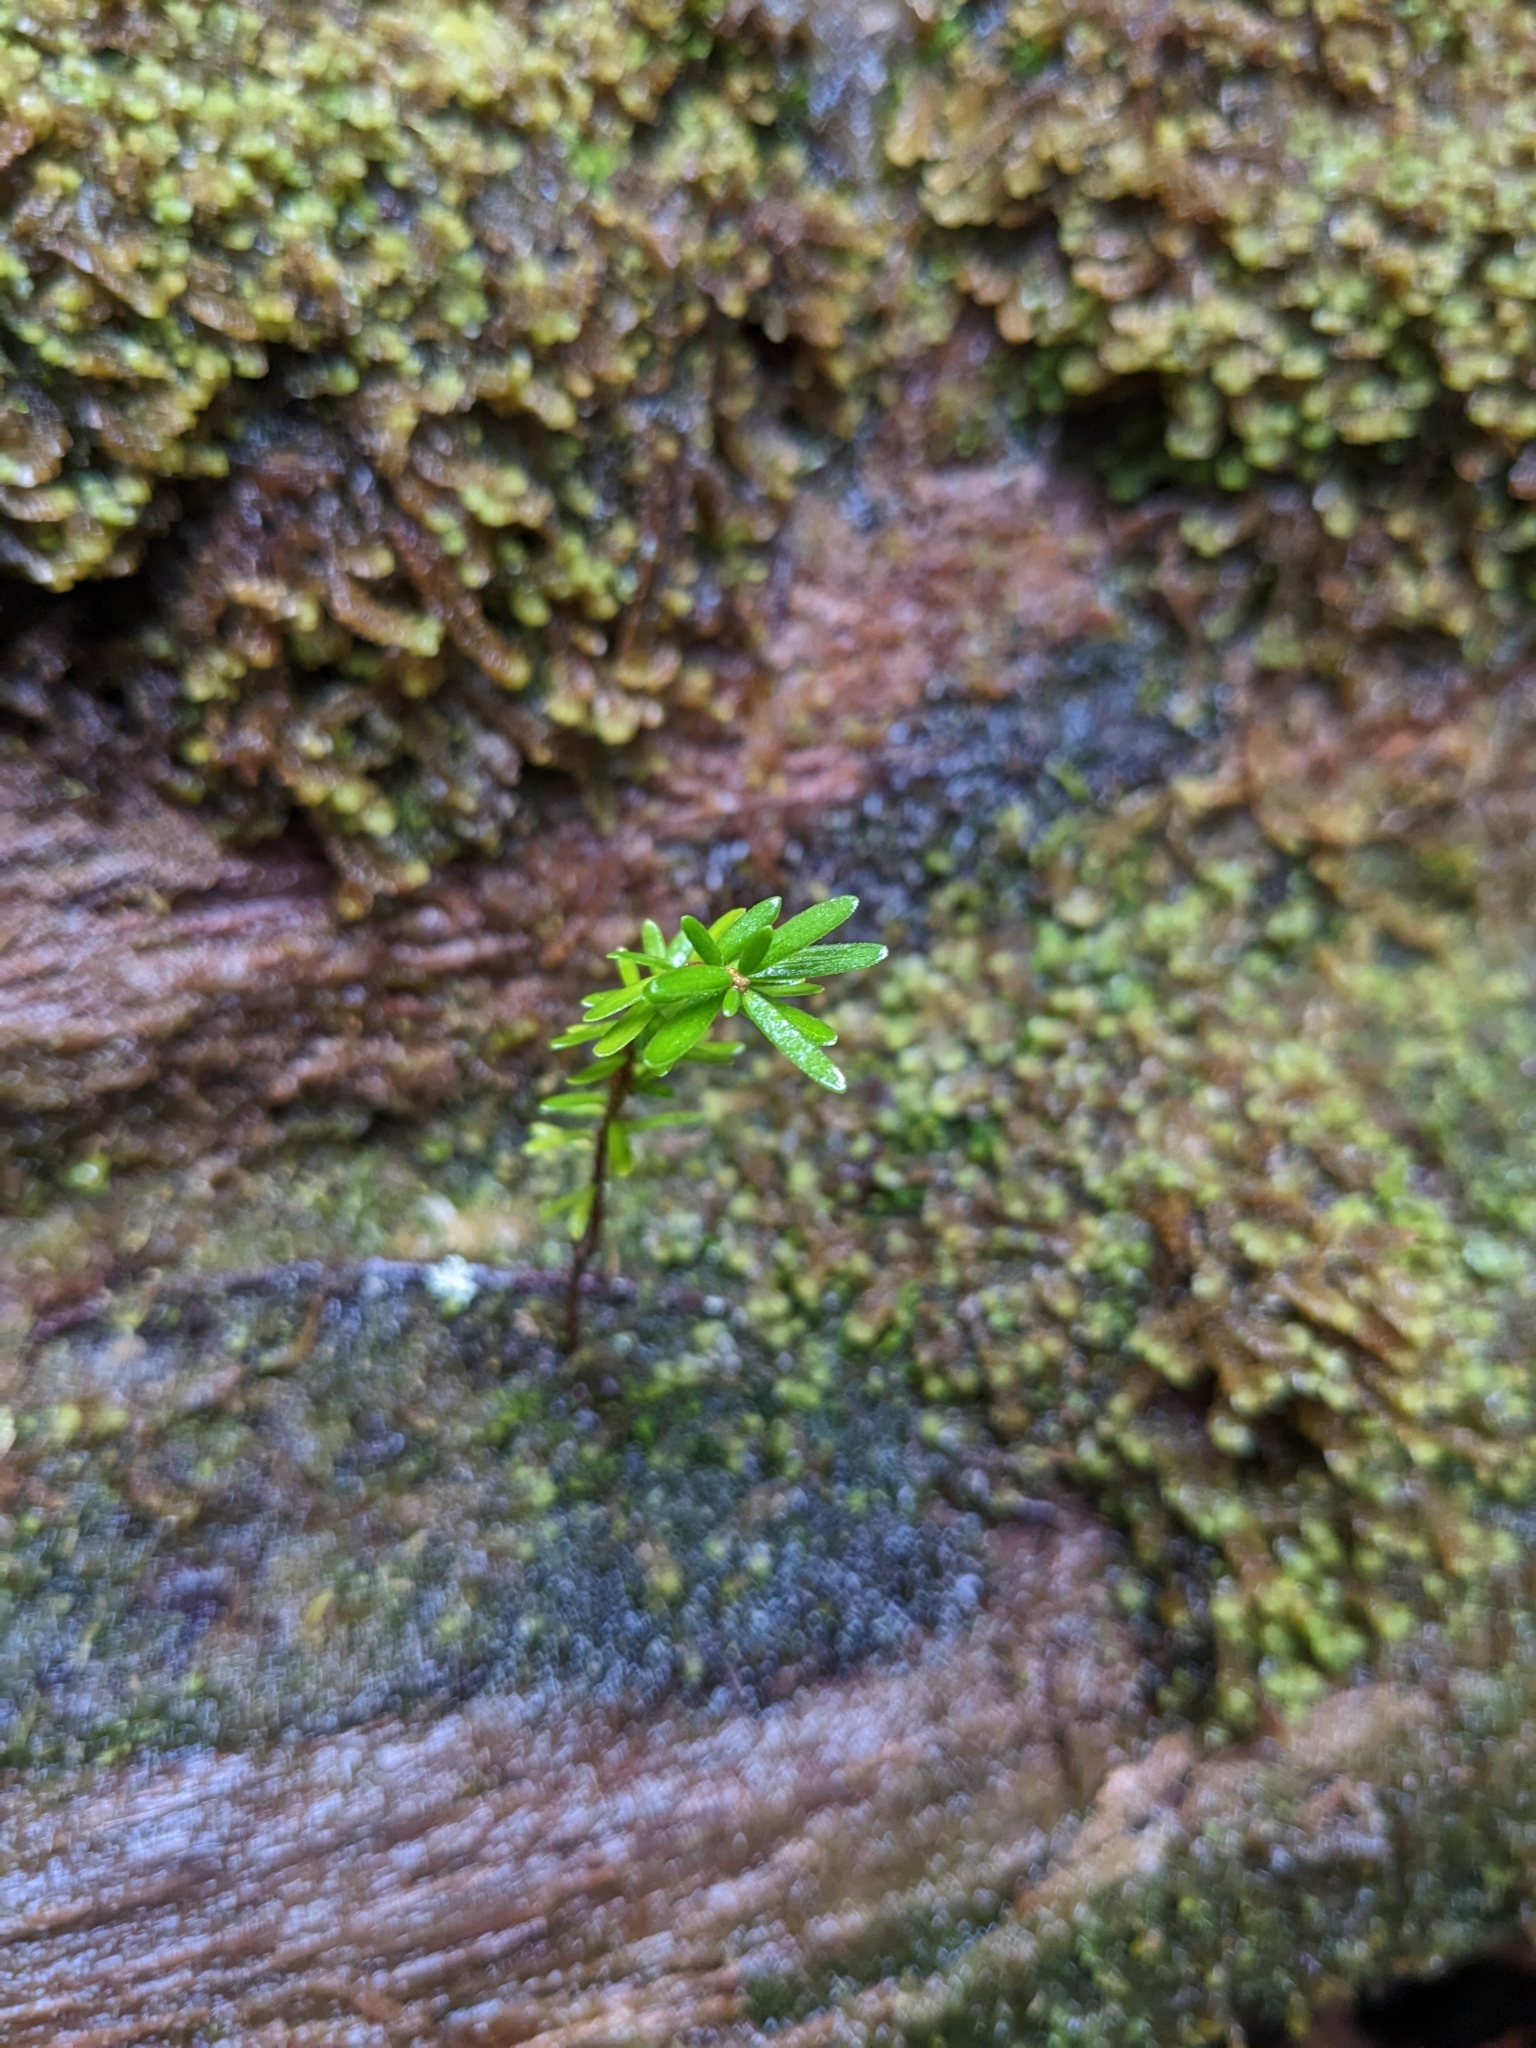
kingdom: Plantae
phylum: Tracheophyta
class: Pinopsida
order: Pinales
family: Pinaceae
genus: Tsuga
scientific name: Tsuga heterophylla
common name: Western hemlock
